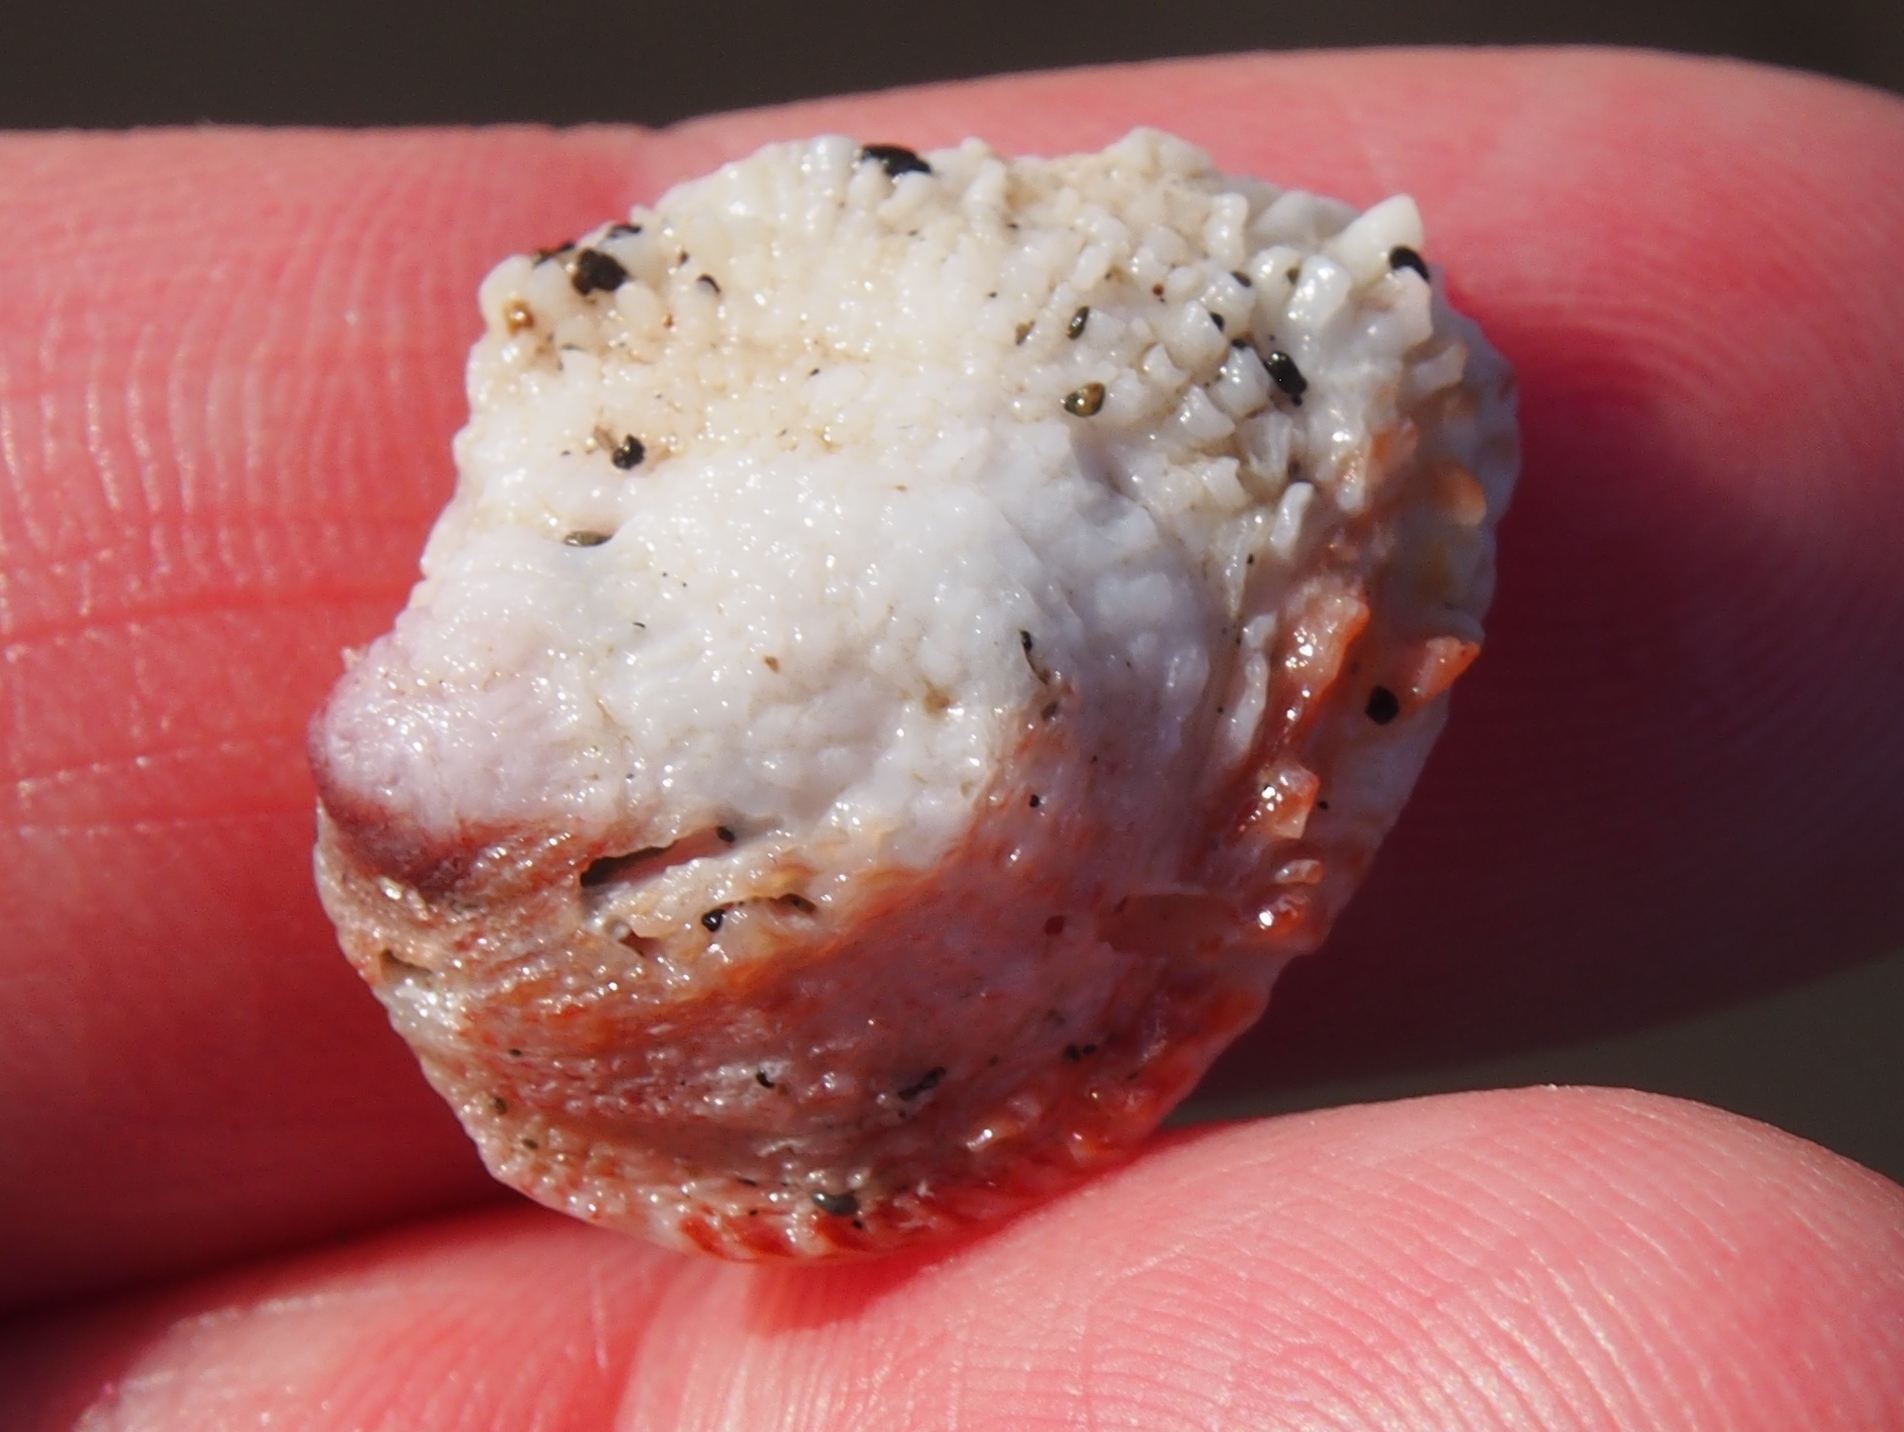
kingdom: Animalia
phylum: Mollusca
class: Bivalvia
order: Venerida
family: Chamidae
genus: Chama
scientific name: Chama buddiana
